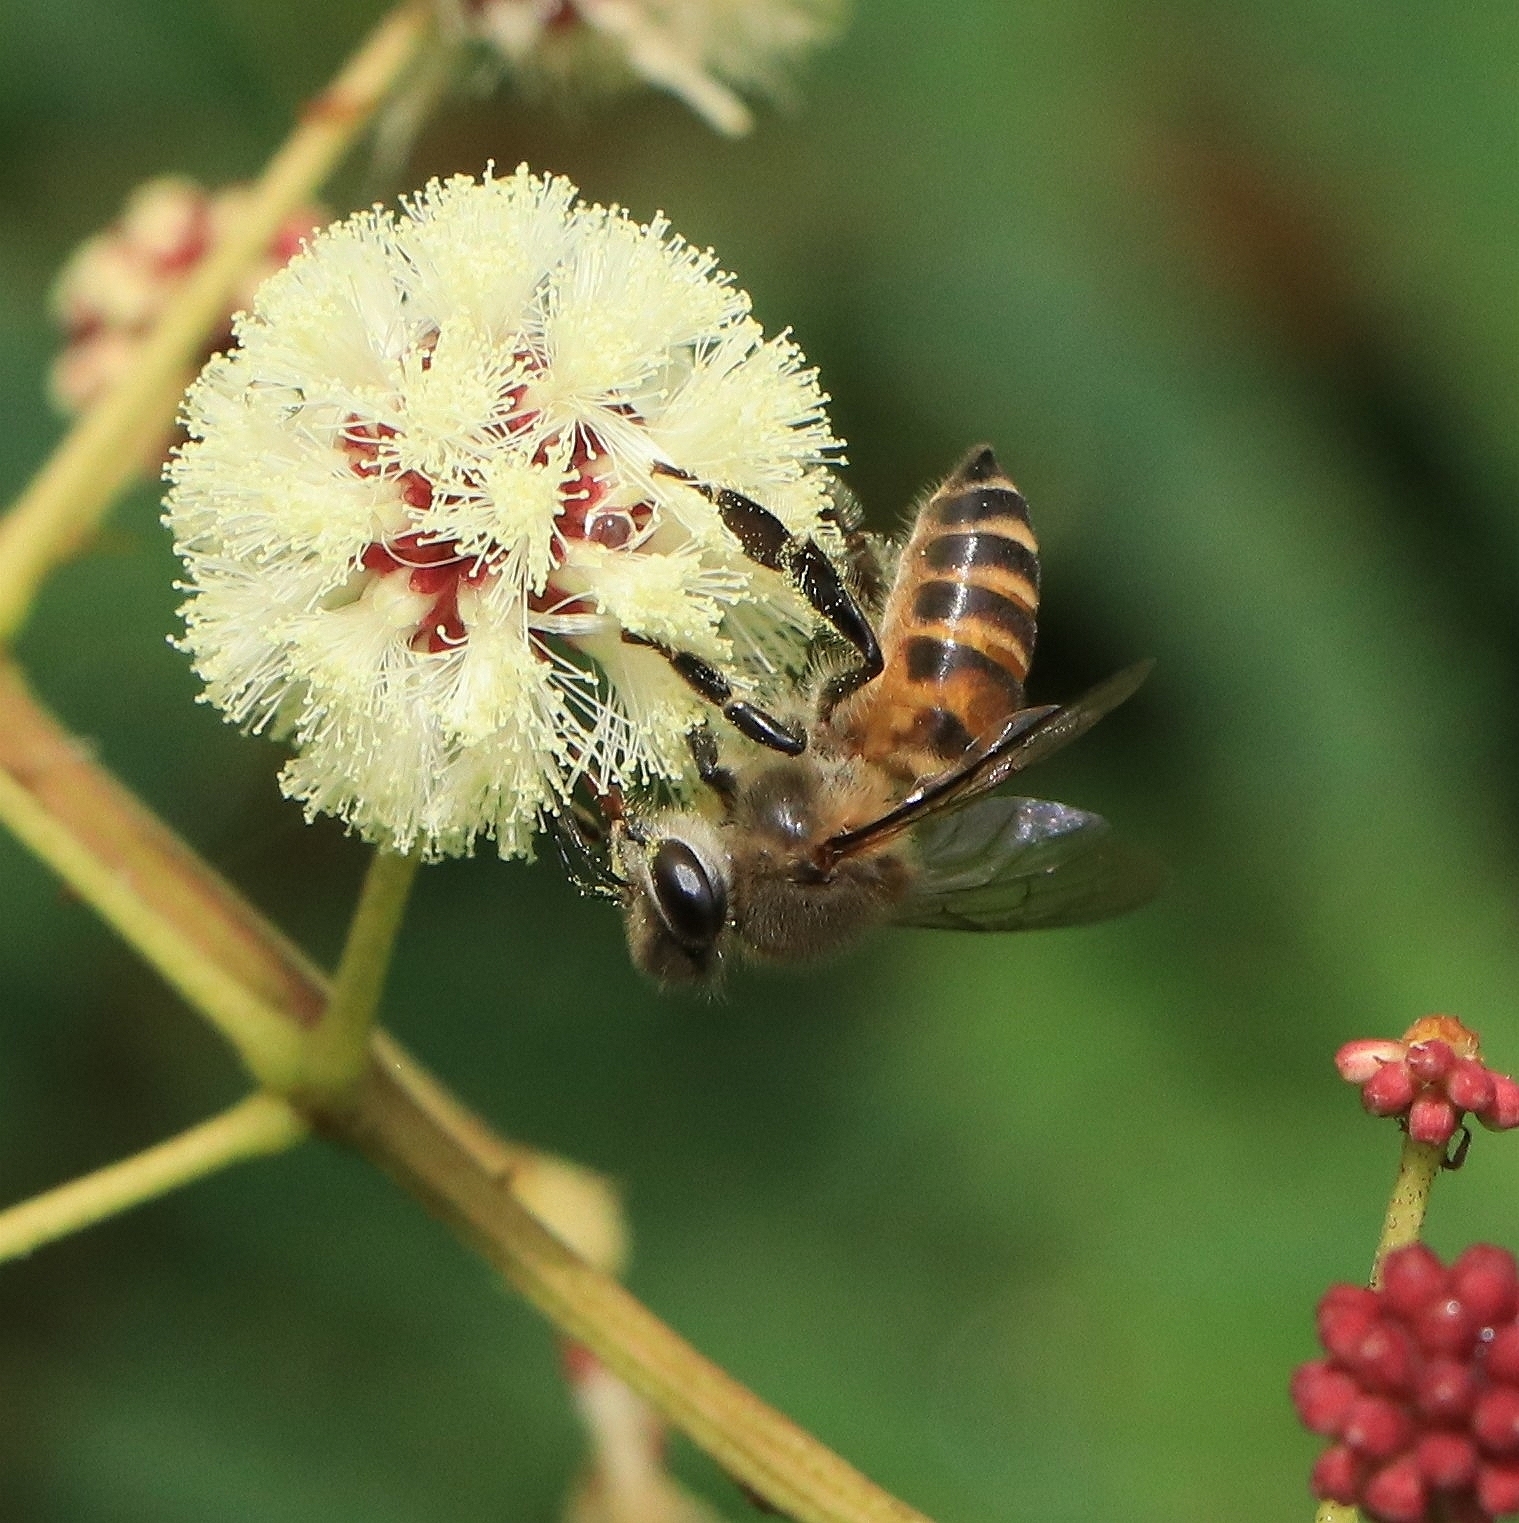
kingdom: Animalia
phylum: Arthropoda
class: Insecta
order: Hymenoptera
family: Apidae
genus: Apis
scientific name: Apis cerana
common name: Honey bee
